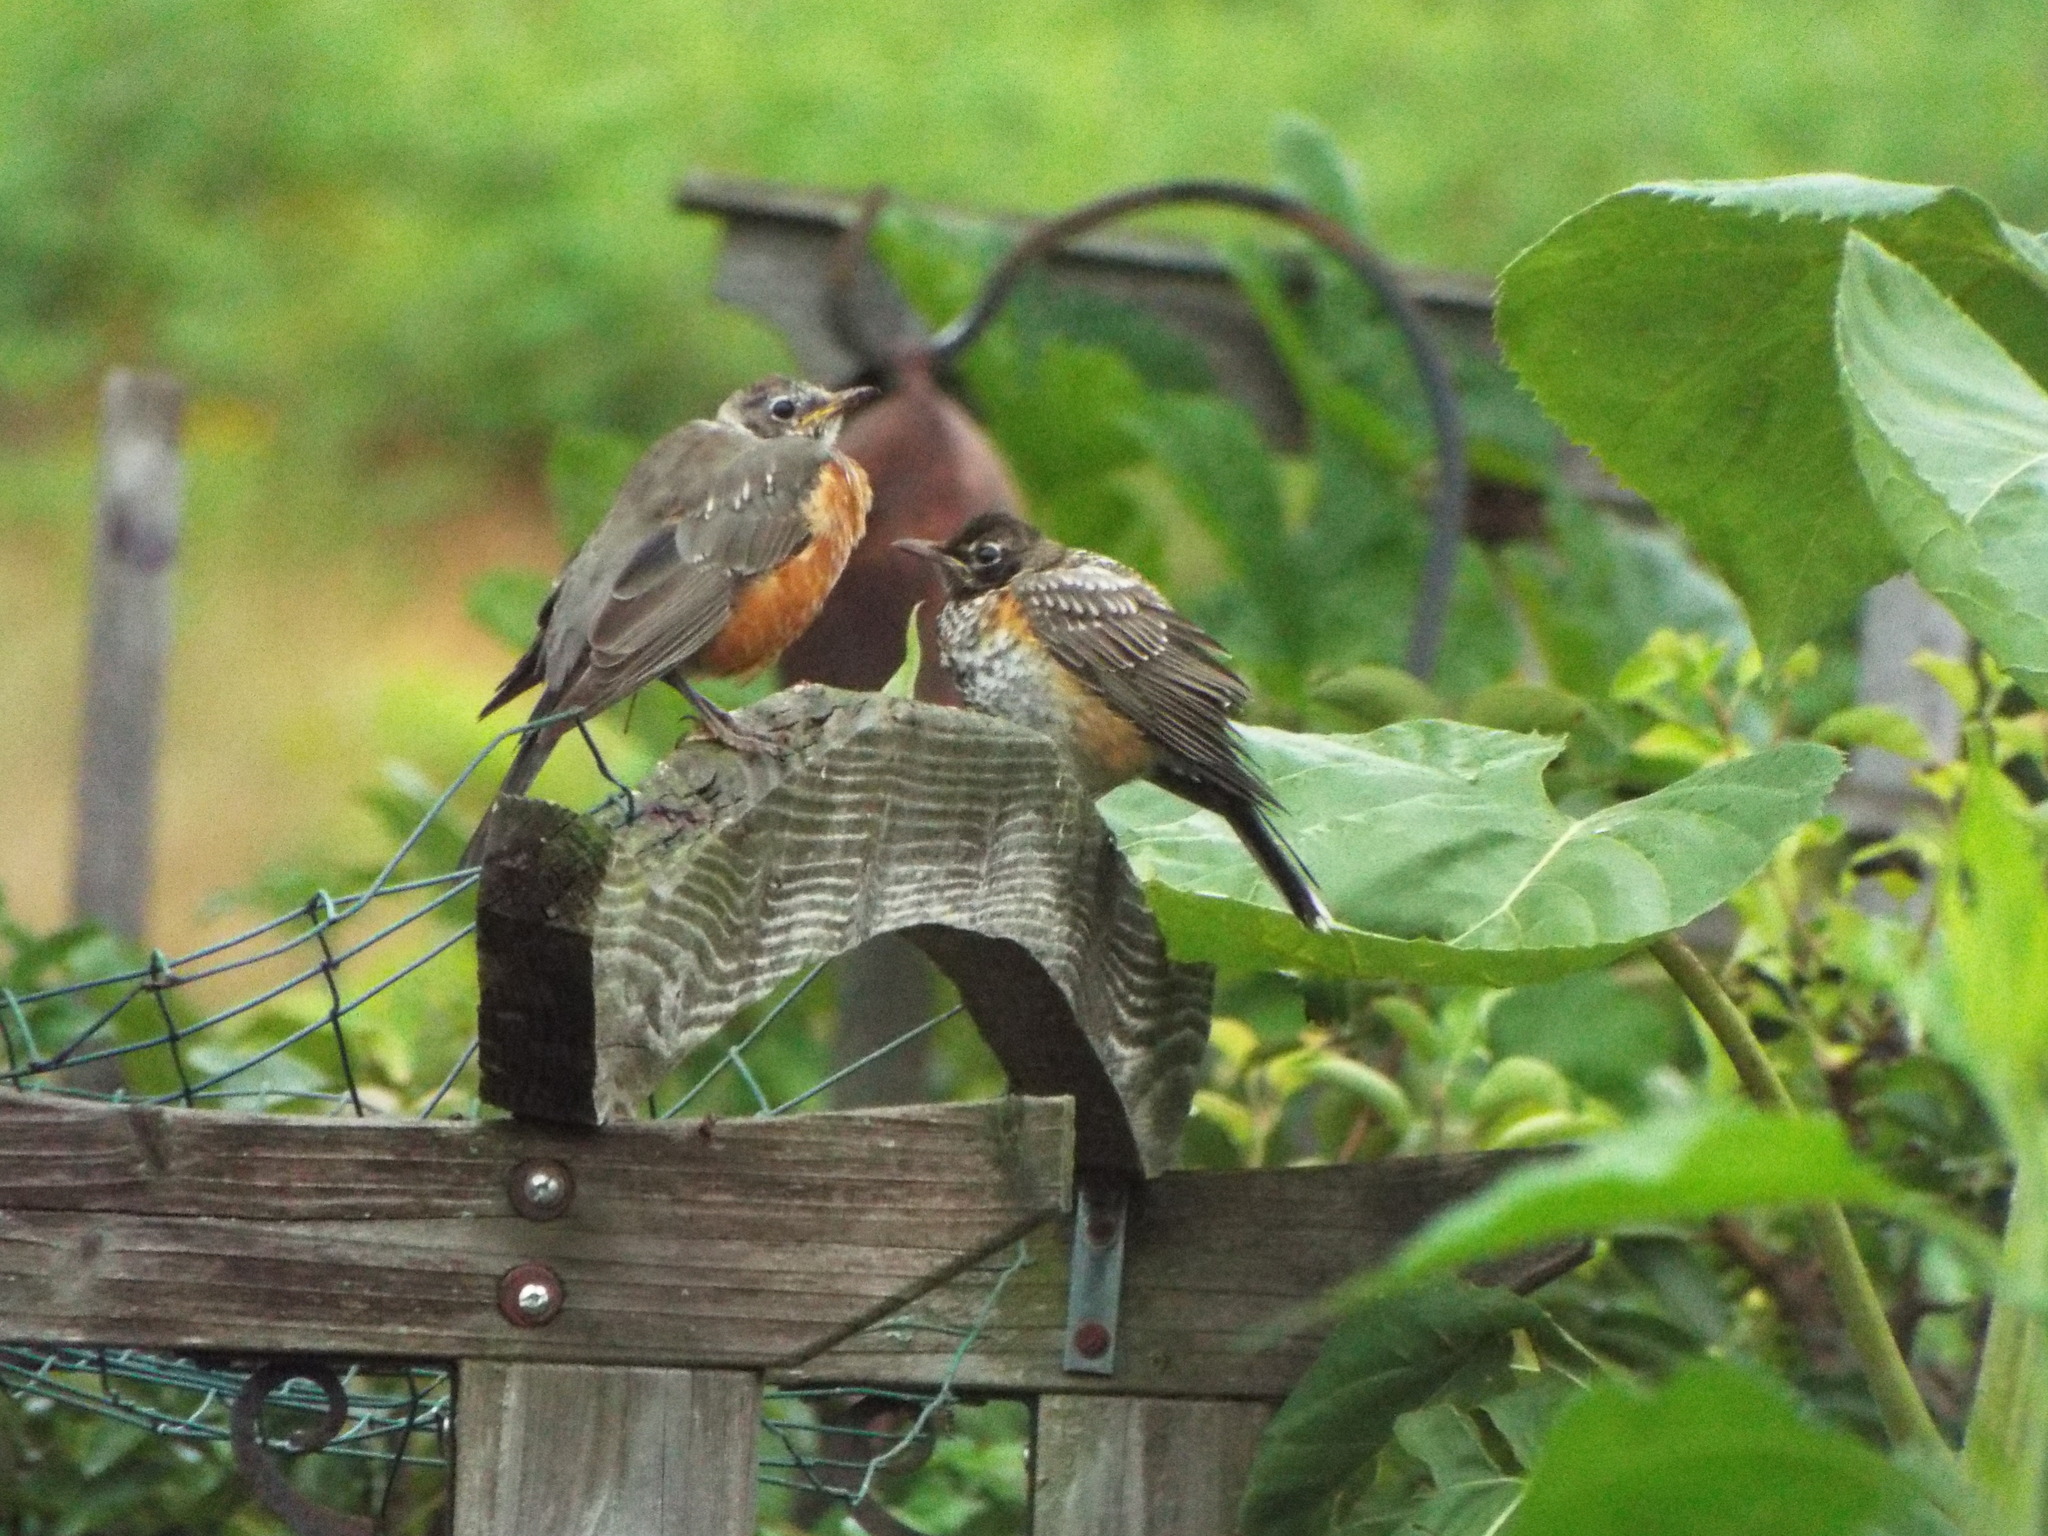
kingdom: Animalia
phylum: Chordata
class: Aves
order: Passeriformes
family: Turdidae
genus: Turdus
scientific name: Turdus migratorius
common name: American robin
